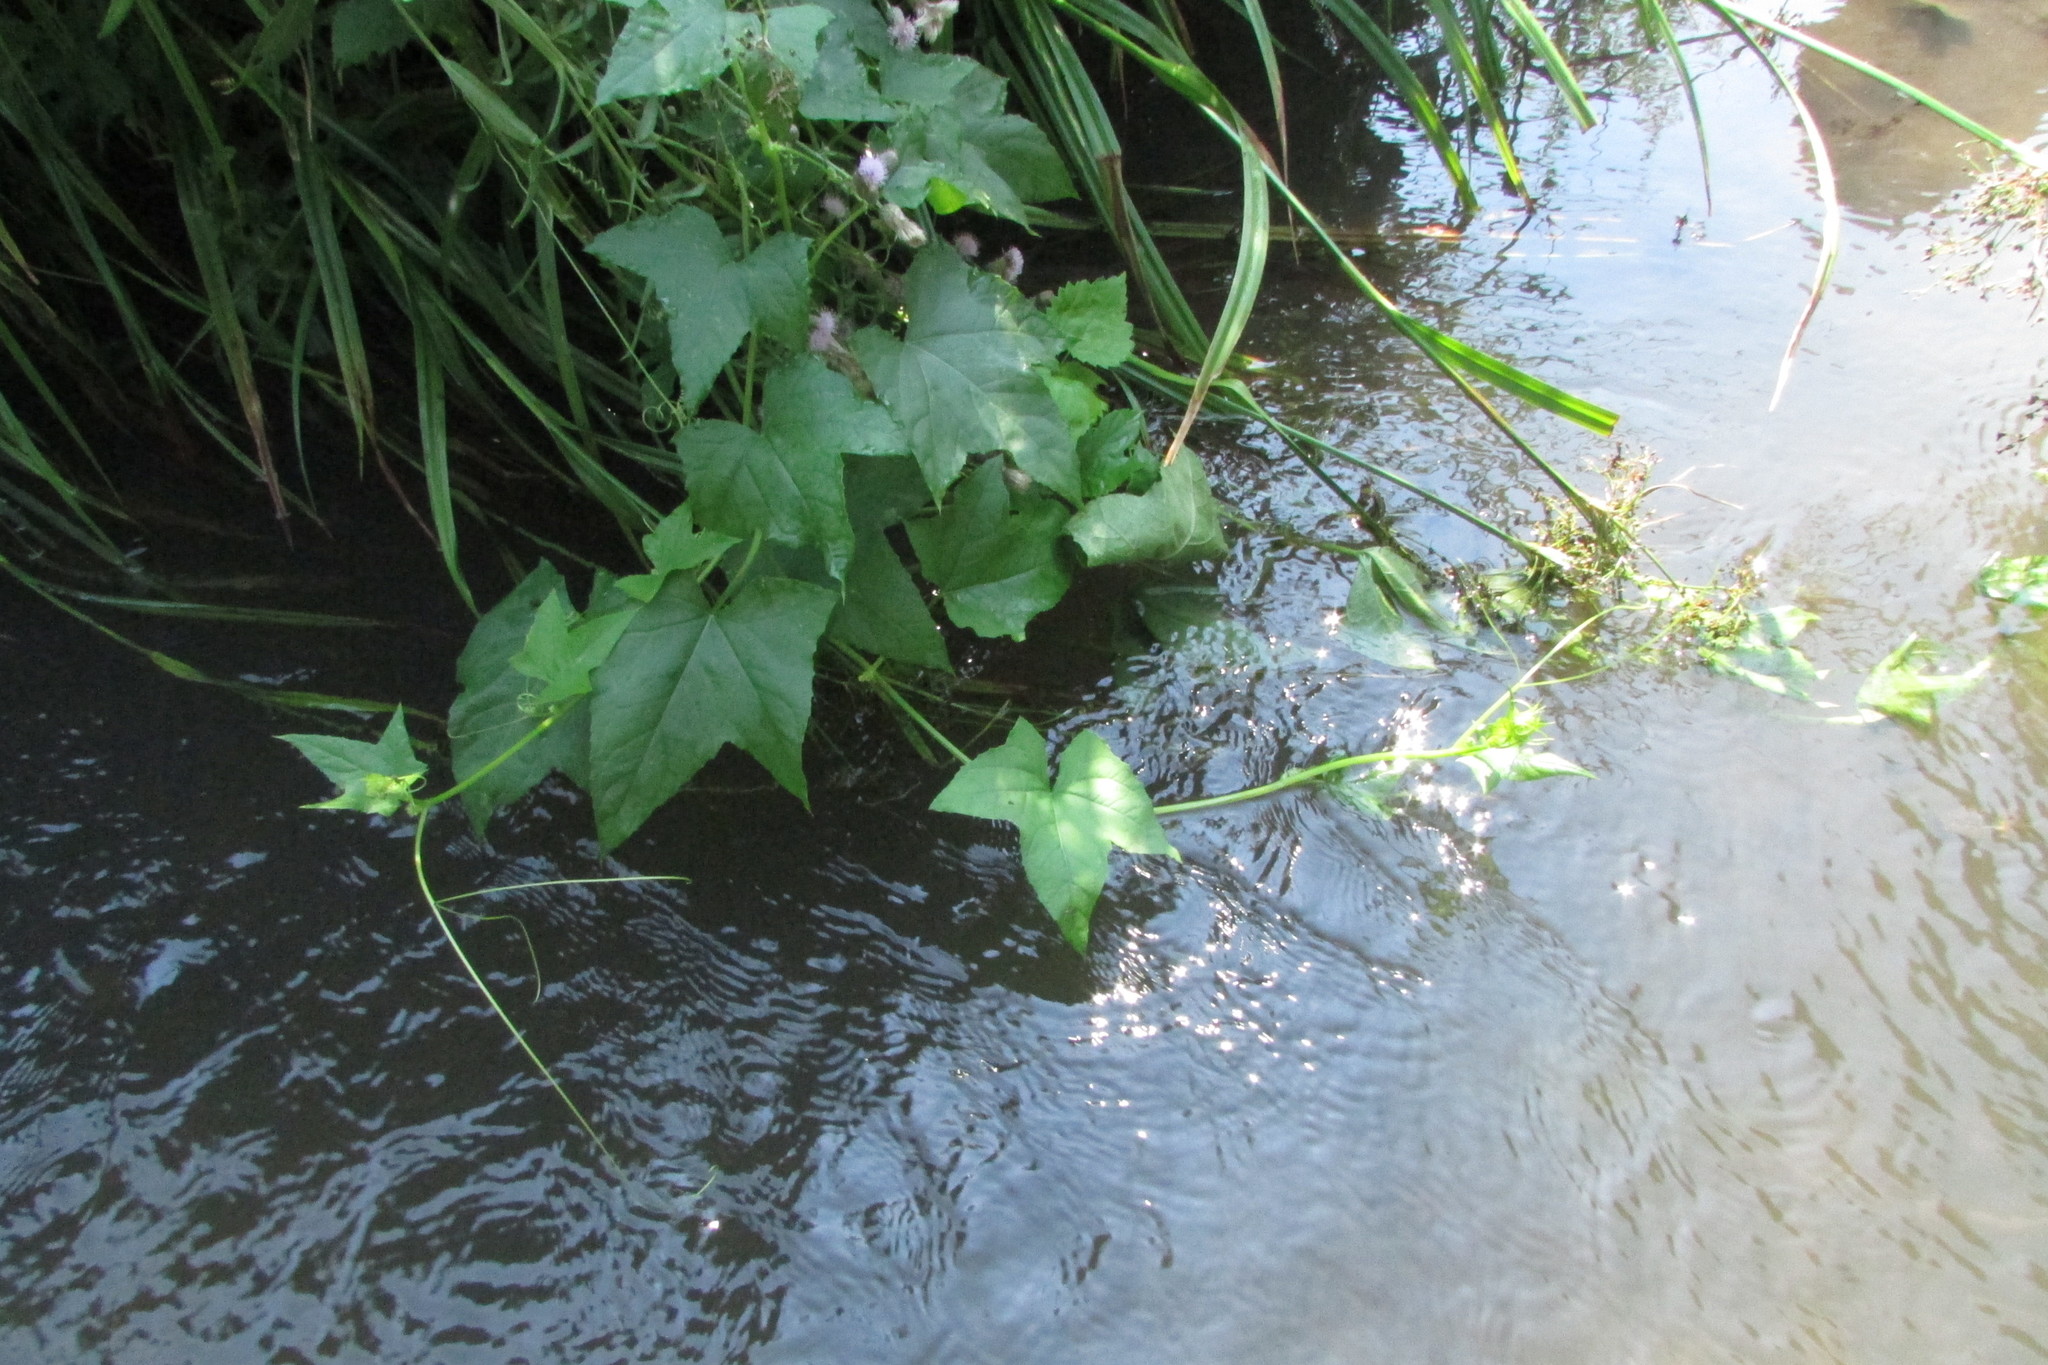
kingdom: Plantae
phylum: Tracheophyta
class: Magnoliopsida
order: Cucurbitales
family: Cucurbitaceae
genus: Echinocystis
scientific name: Echinocystis lobata
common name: Wild cucumber
